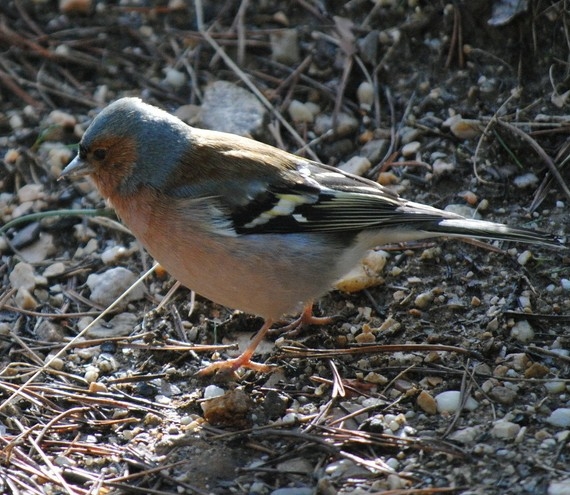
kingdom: Animalia
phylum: Chordata
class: Aves
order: Passeriformes
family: Fringillidae
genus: Fringilla
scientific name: Fringilla coelebs
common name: Common chaffinch
